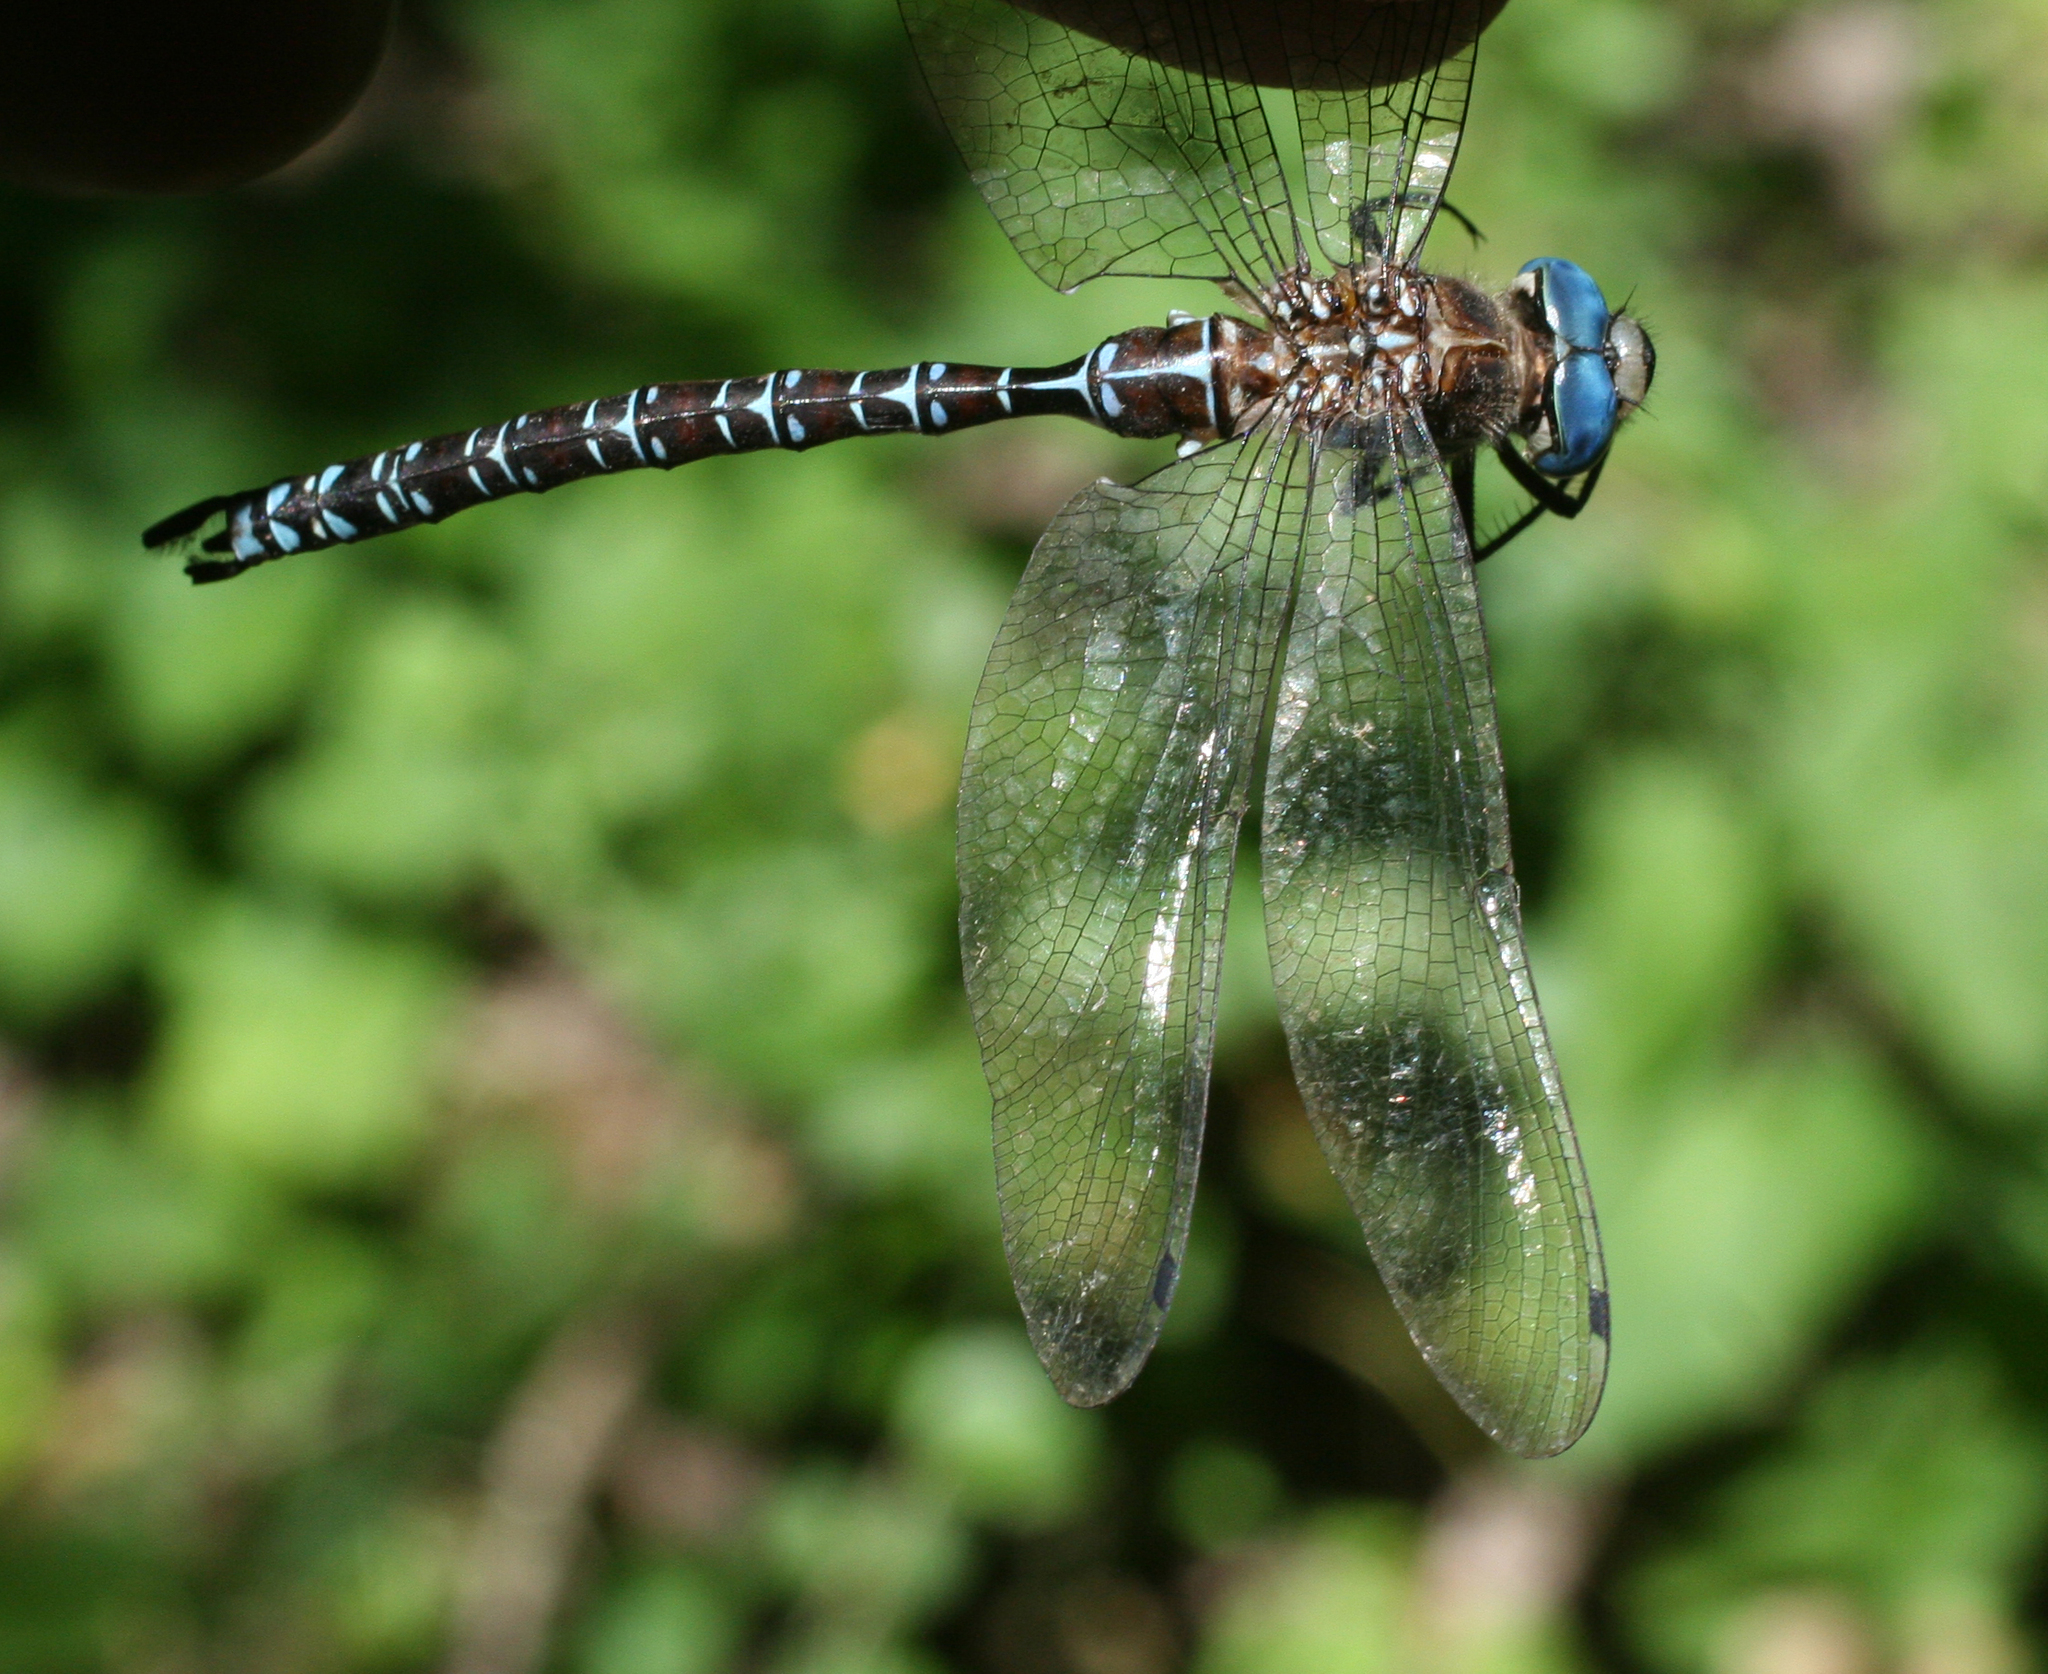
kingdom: Animalia
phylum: Arthropoda
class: Insecta
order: Odonata
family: Aeshnidae
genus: Caliaeschna
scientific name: Caliaeschna microstigma
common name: Eastern spectre
